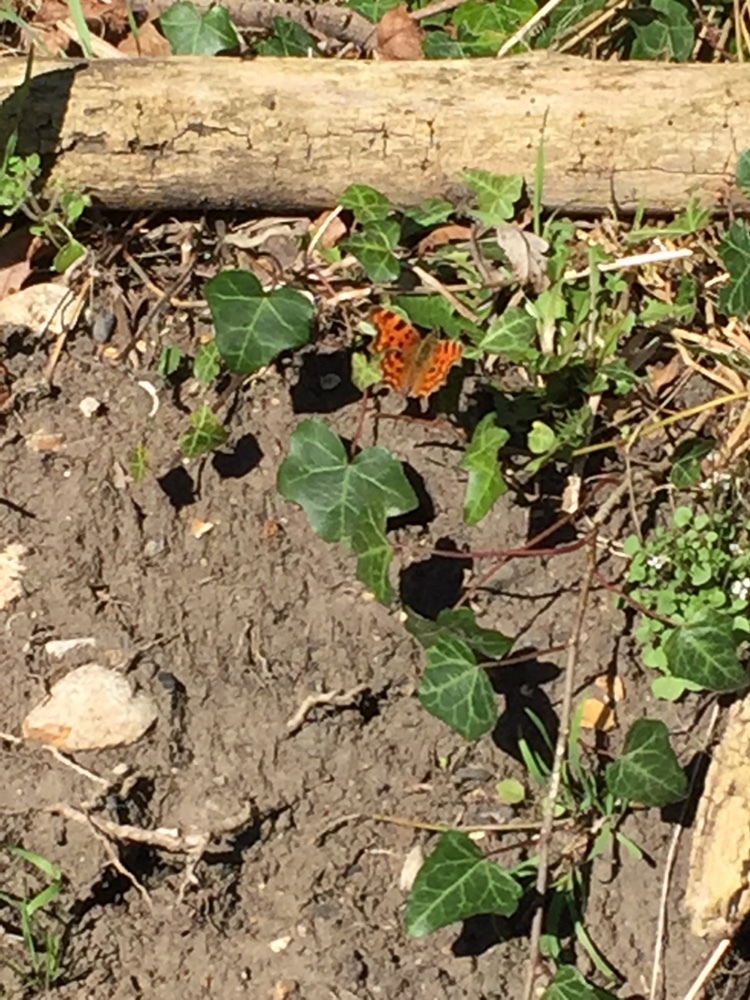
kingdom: Animalia
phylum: Arthropoda
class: Insecta
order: Lepidoptera
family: Nymphalidae
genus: Polygonia
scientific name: Polygonia c-album
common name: Comma
